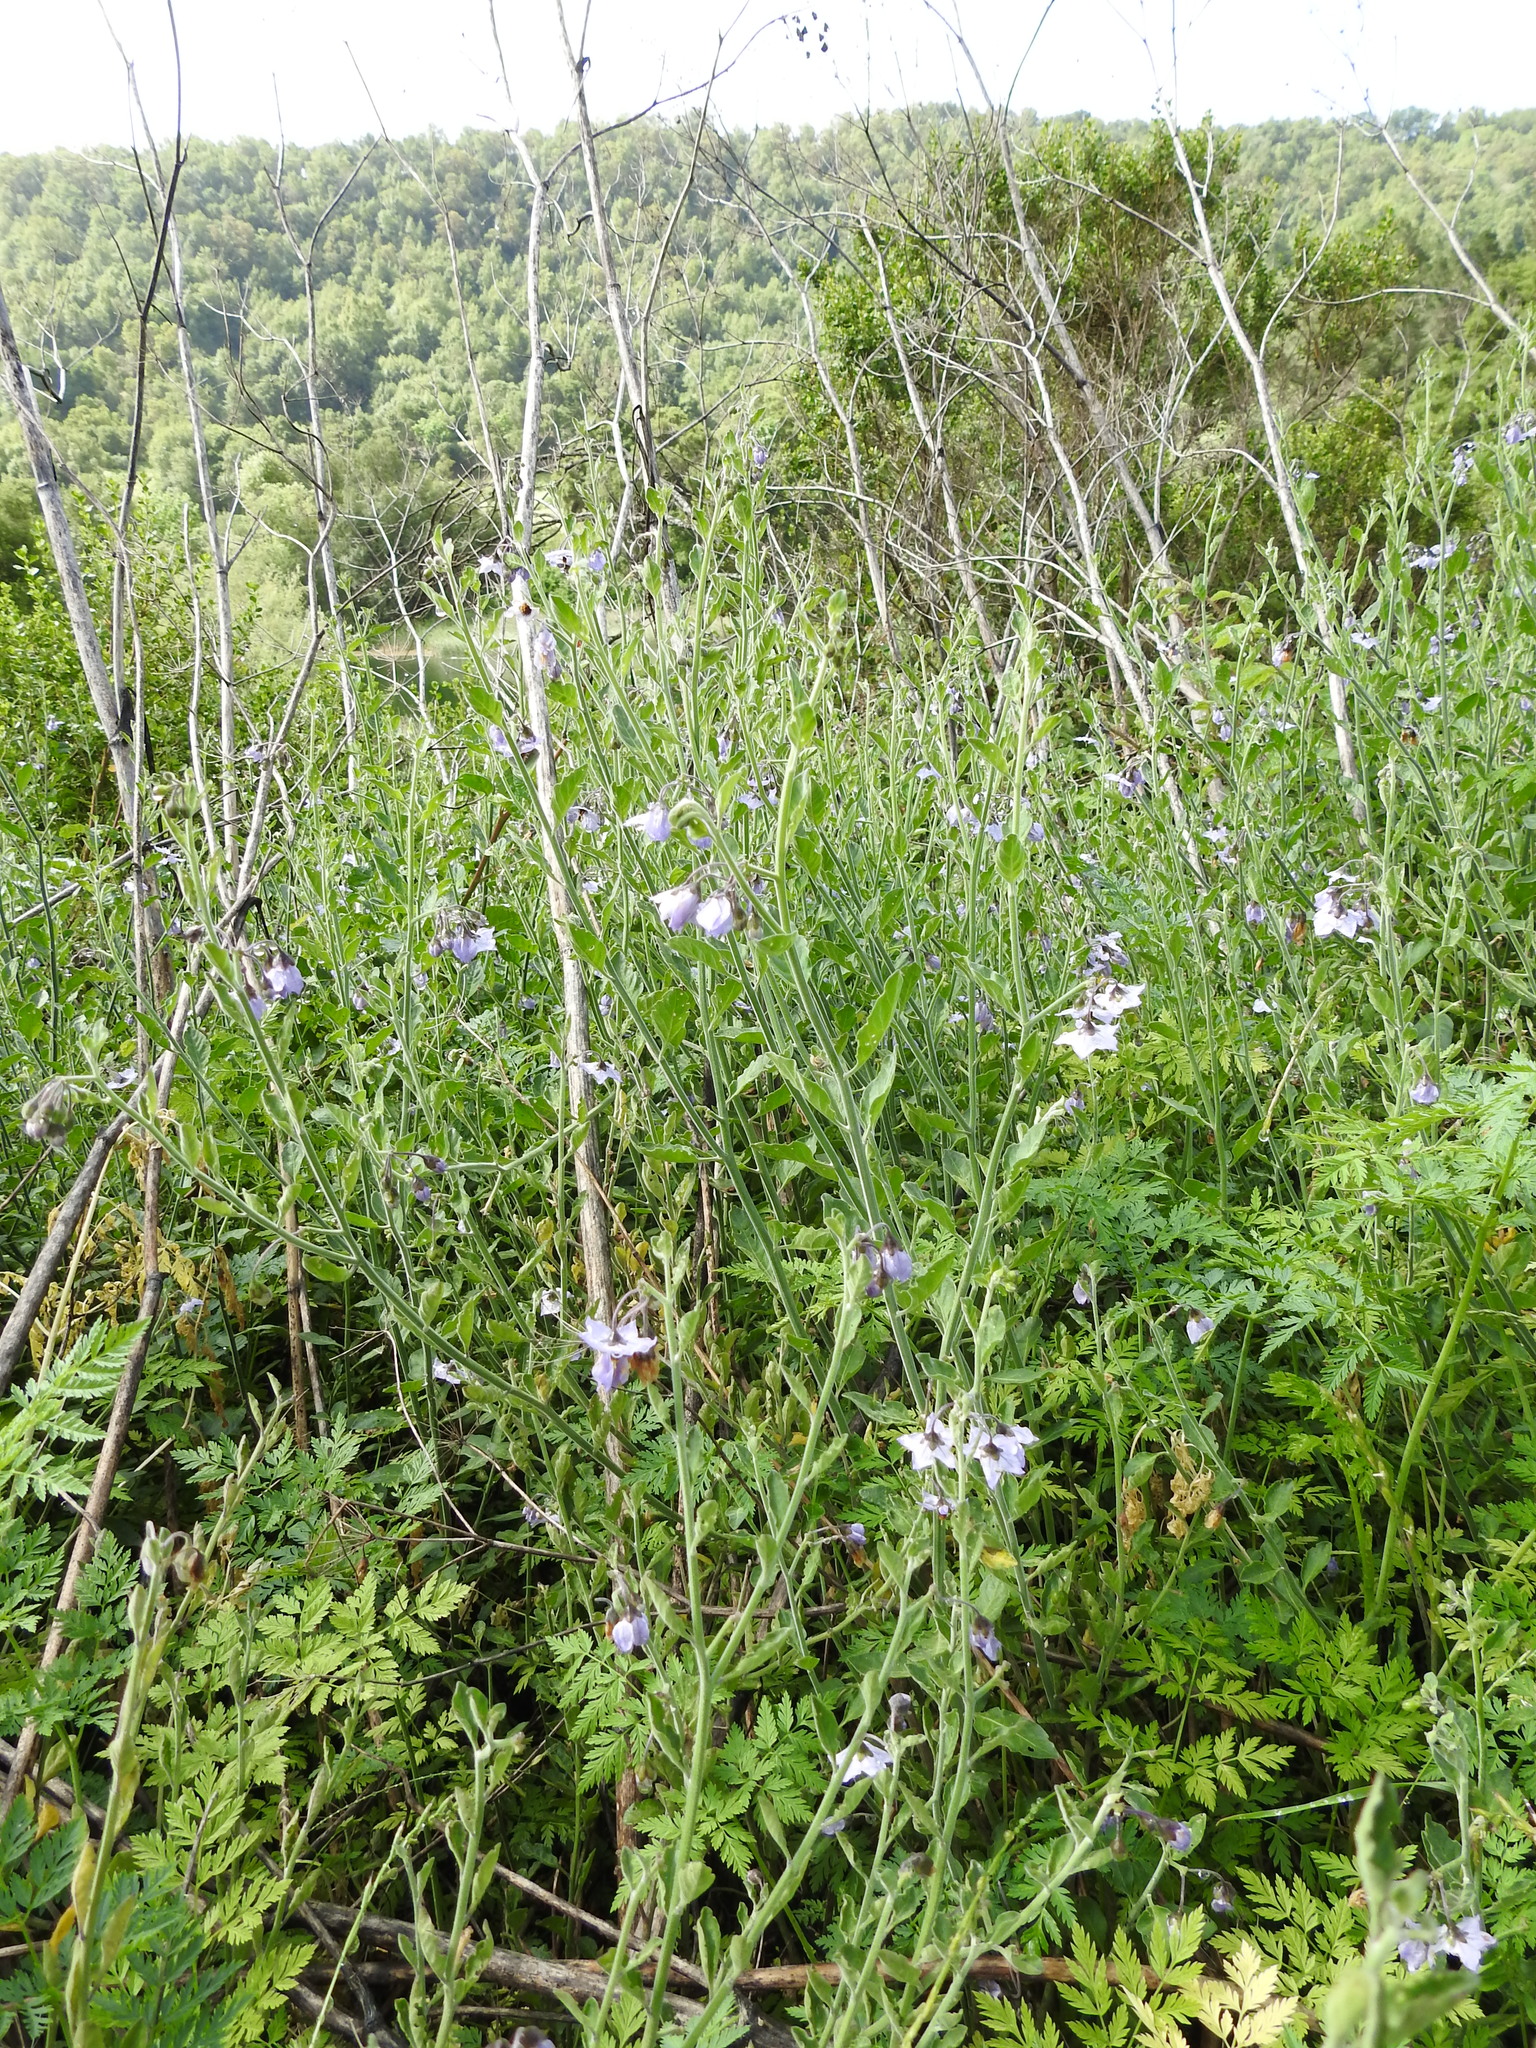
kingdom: Plantae
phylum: Tracheophyta
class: Magnoliopsida
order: Solanales
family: Solanaceae
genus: Solanum
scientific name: Solanum umbelliferum
